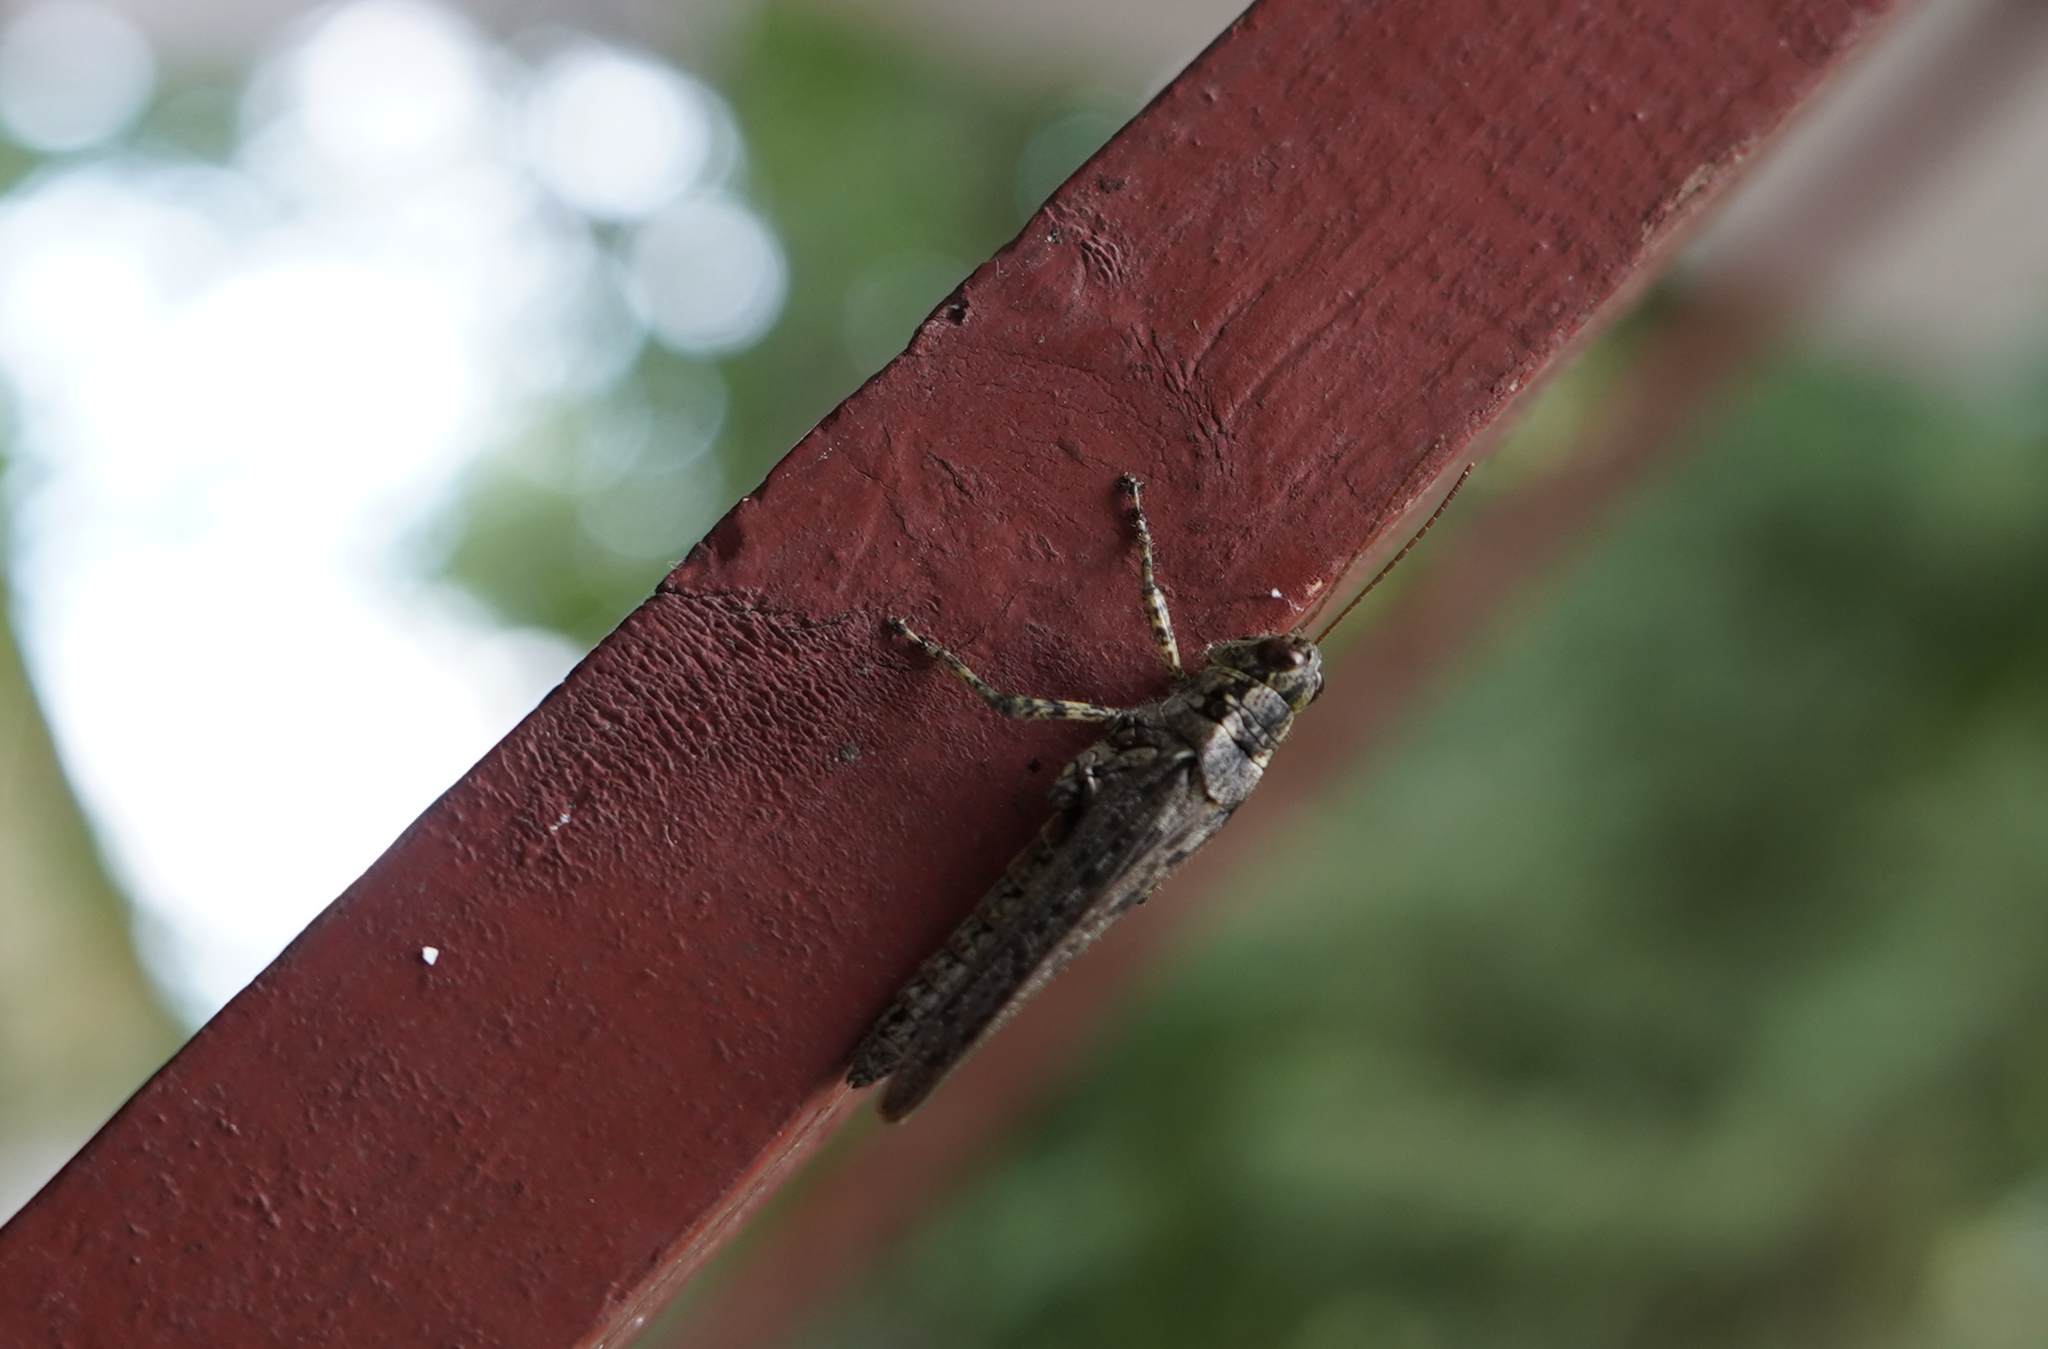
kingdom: Animalia
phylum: Arthropoda
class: Insecta
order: Orthoptera
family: Acrididae
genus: Melanoplus
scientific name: Melanoplus punctulatus
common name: Pine-tree spur-throat grasshopper
